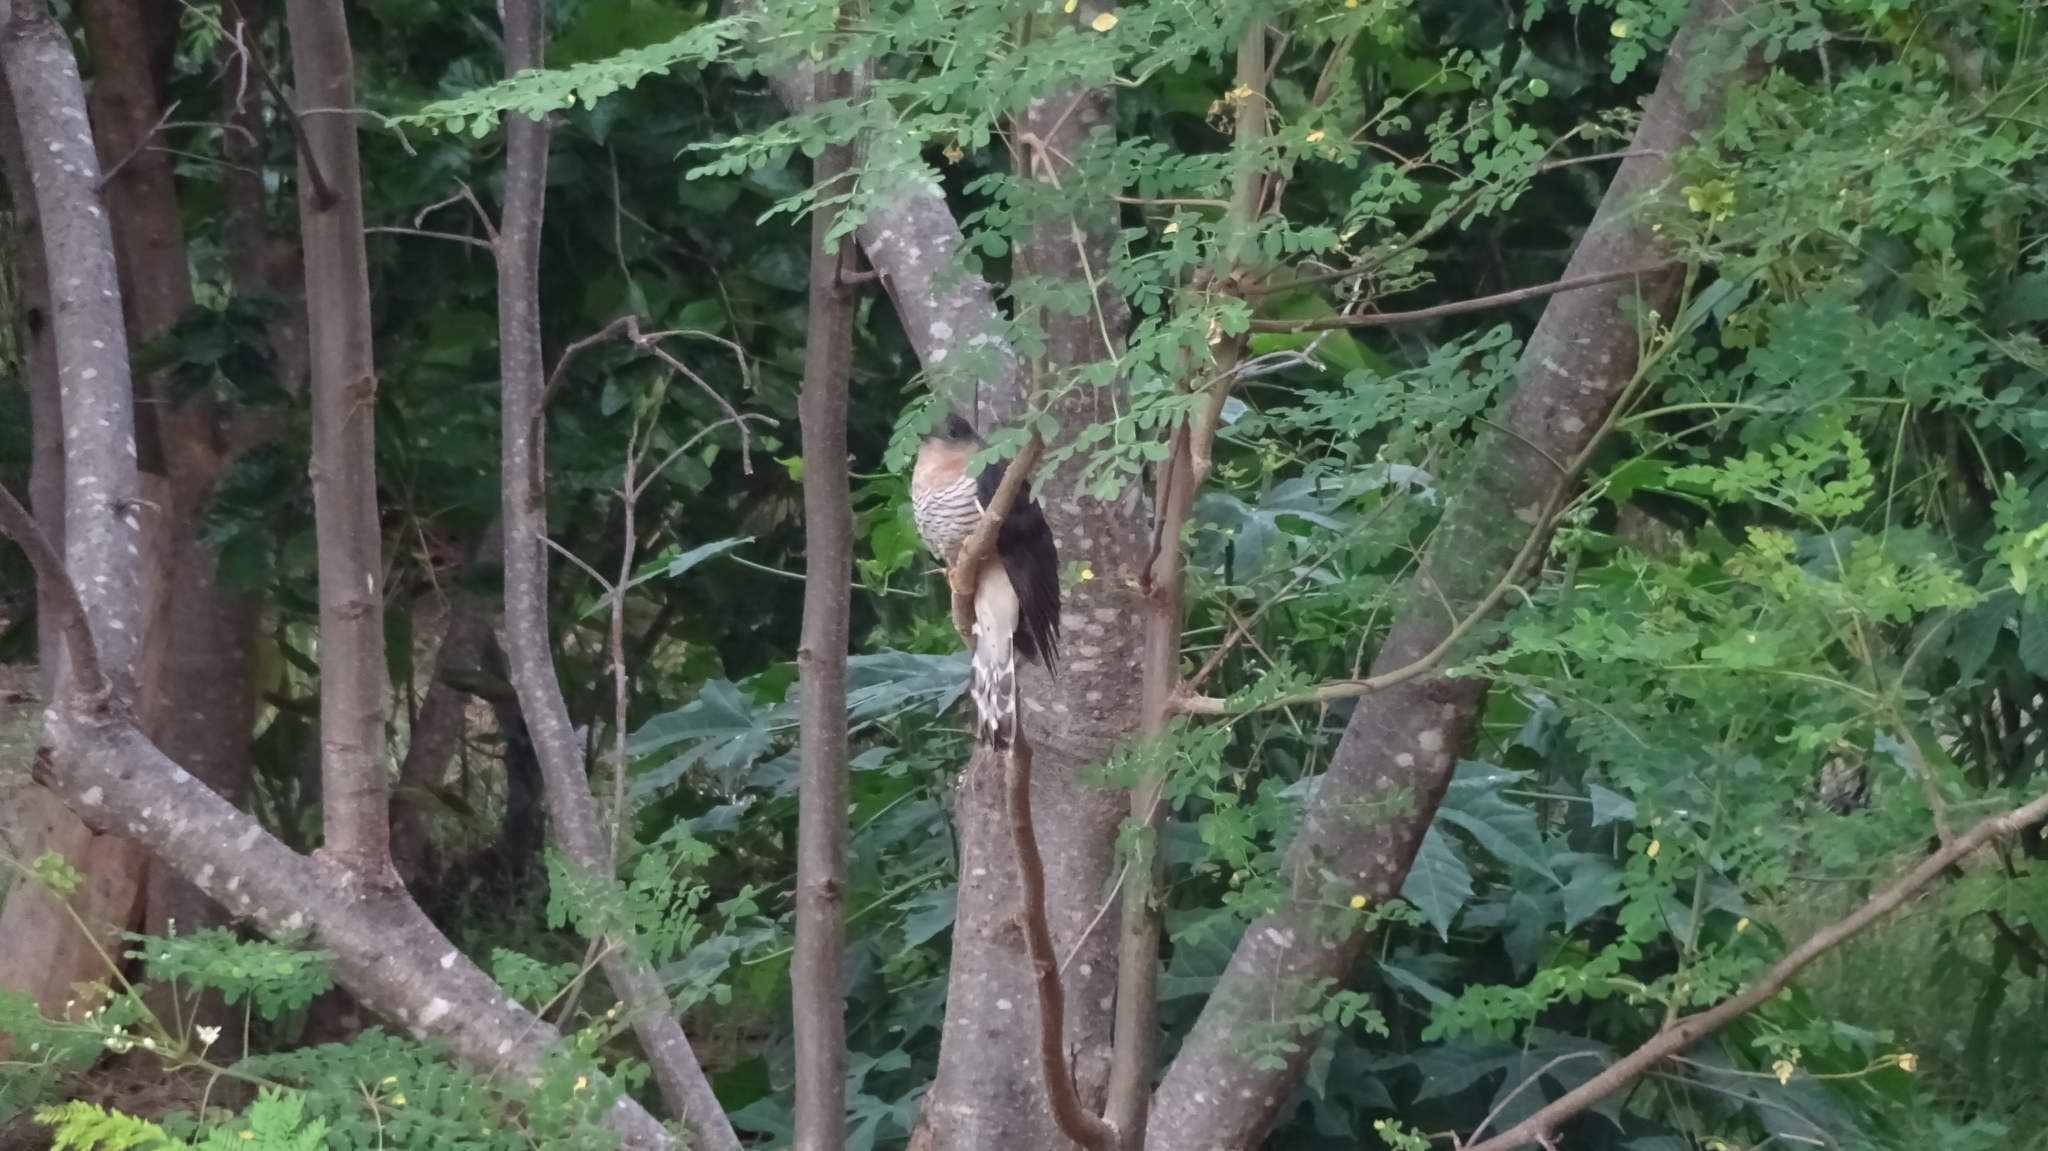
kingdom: Animalia
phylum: Chordata
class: Aves
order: Cuculiformes
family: Cuculidae
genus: Cuculus
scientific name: Cuculus solitarius
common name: Red-chested cuckoo
